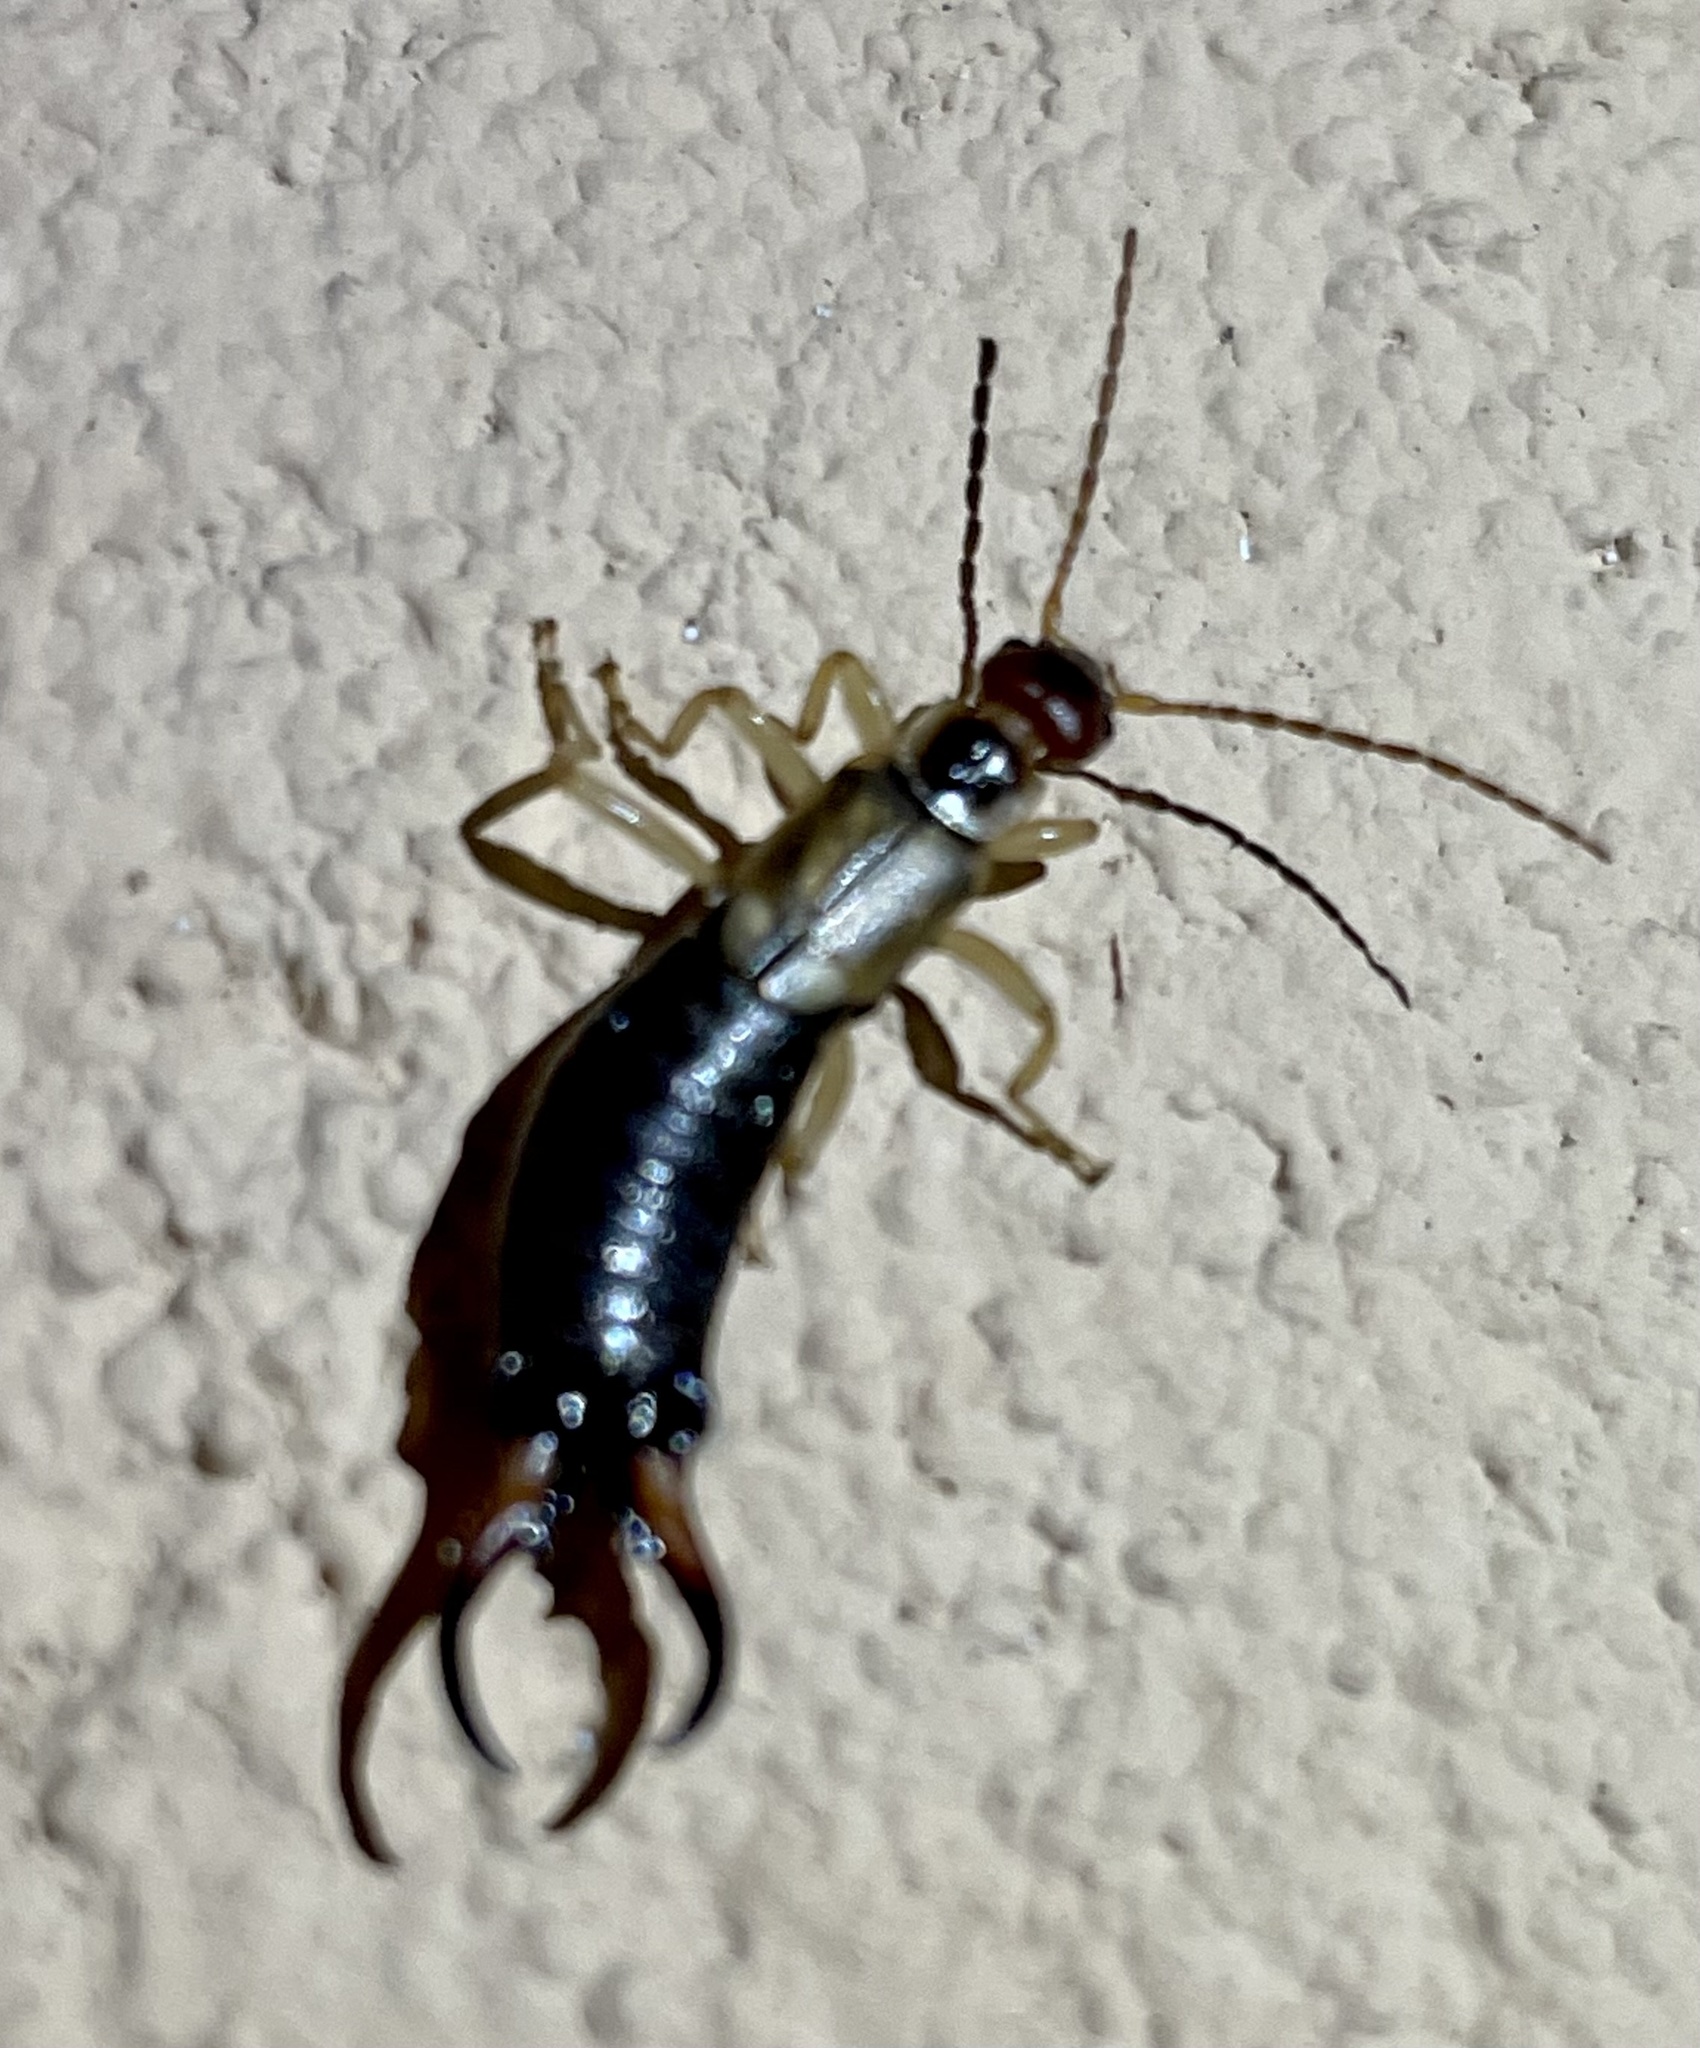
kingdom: Animalia
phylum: Arthropoda
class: Insecta
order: Dermaptera
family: Forficulidae
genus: Forficula
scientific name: Forficula
